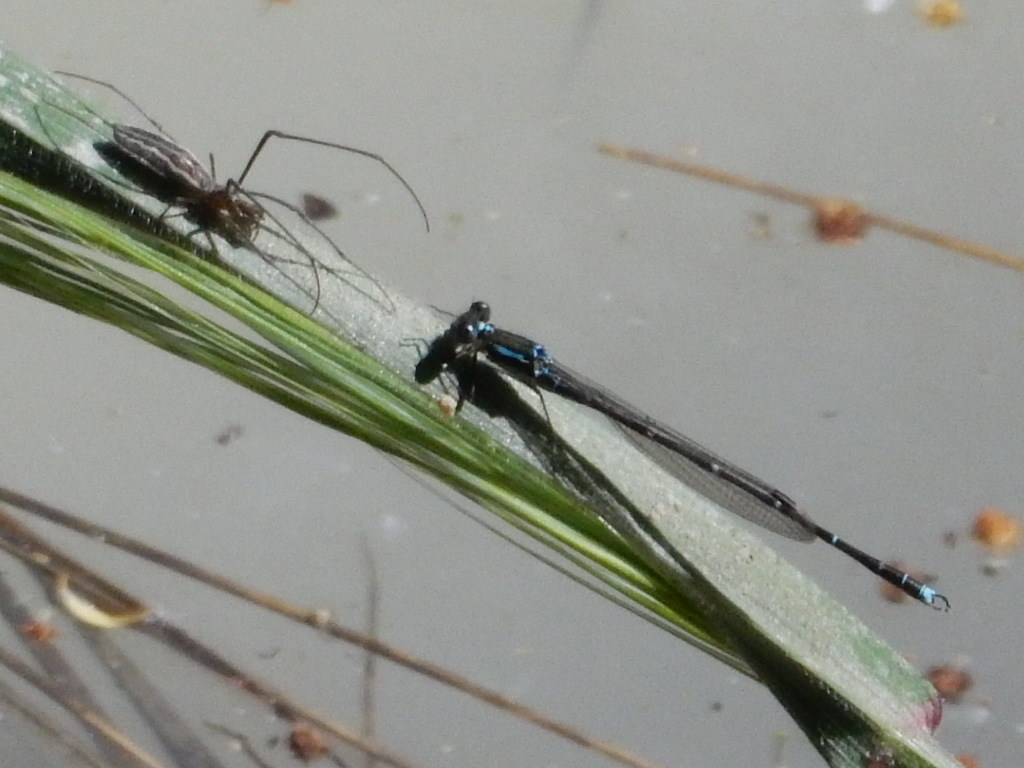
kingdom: Animalia
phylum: Arthropoda
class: Insecta
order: Odonata
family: Lestidae
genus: Austrolestes
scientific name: Austrolestes colensonis
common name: Blue damselfly
